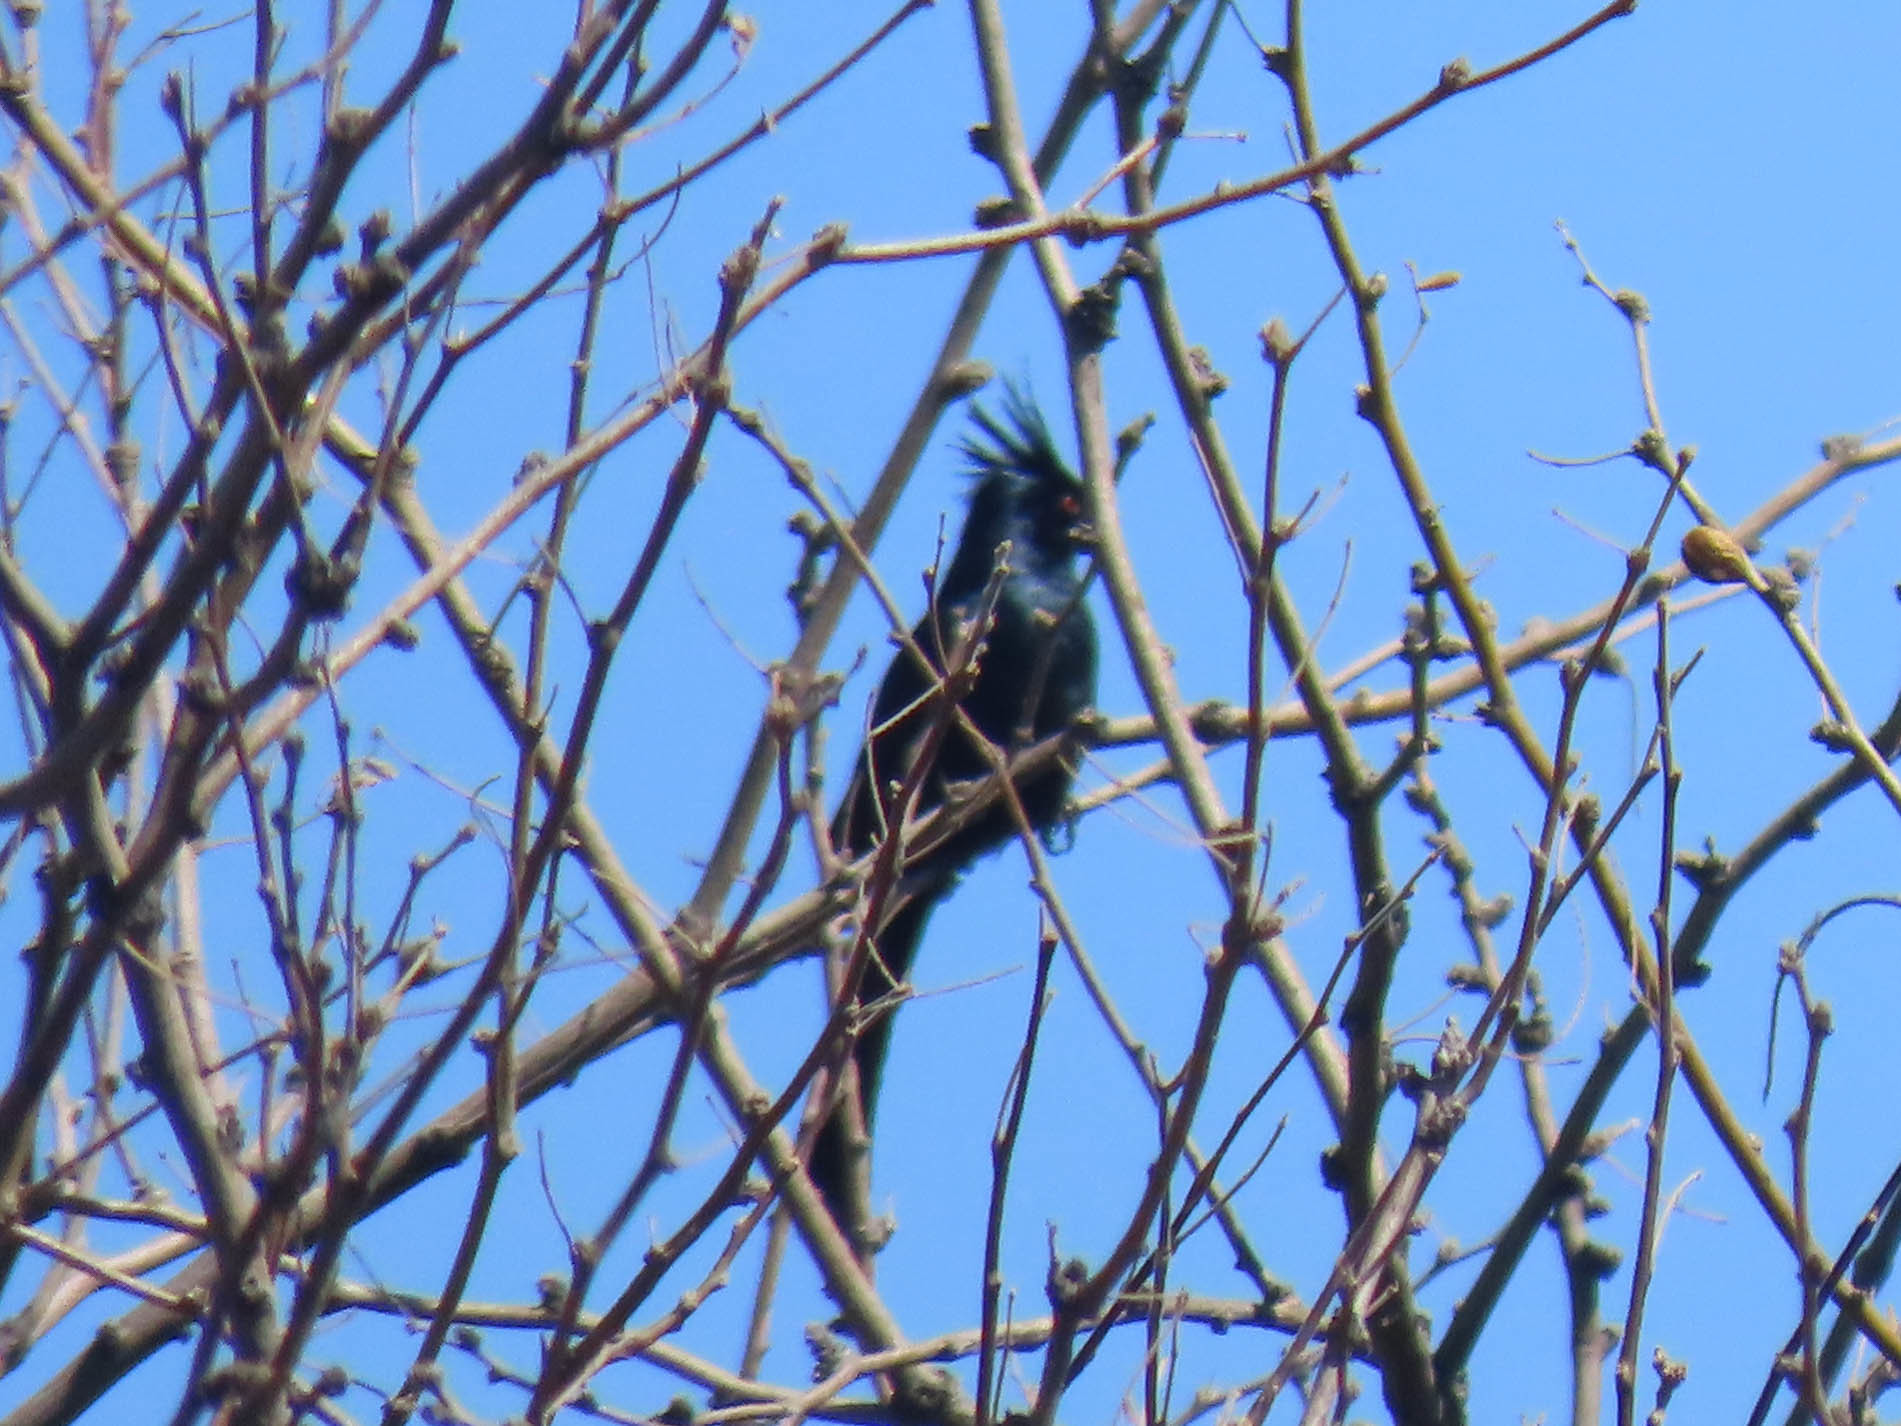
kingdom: Animalia
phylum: Chordata
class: Aves
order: Passeriformes
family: Ptilogonatidae
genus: Phainopepla
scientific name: Phainopepla nitens
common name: Phainopepla
